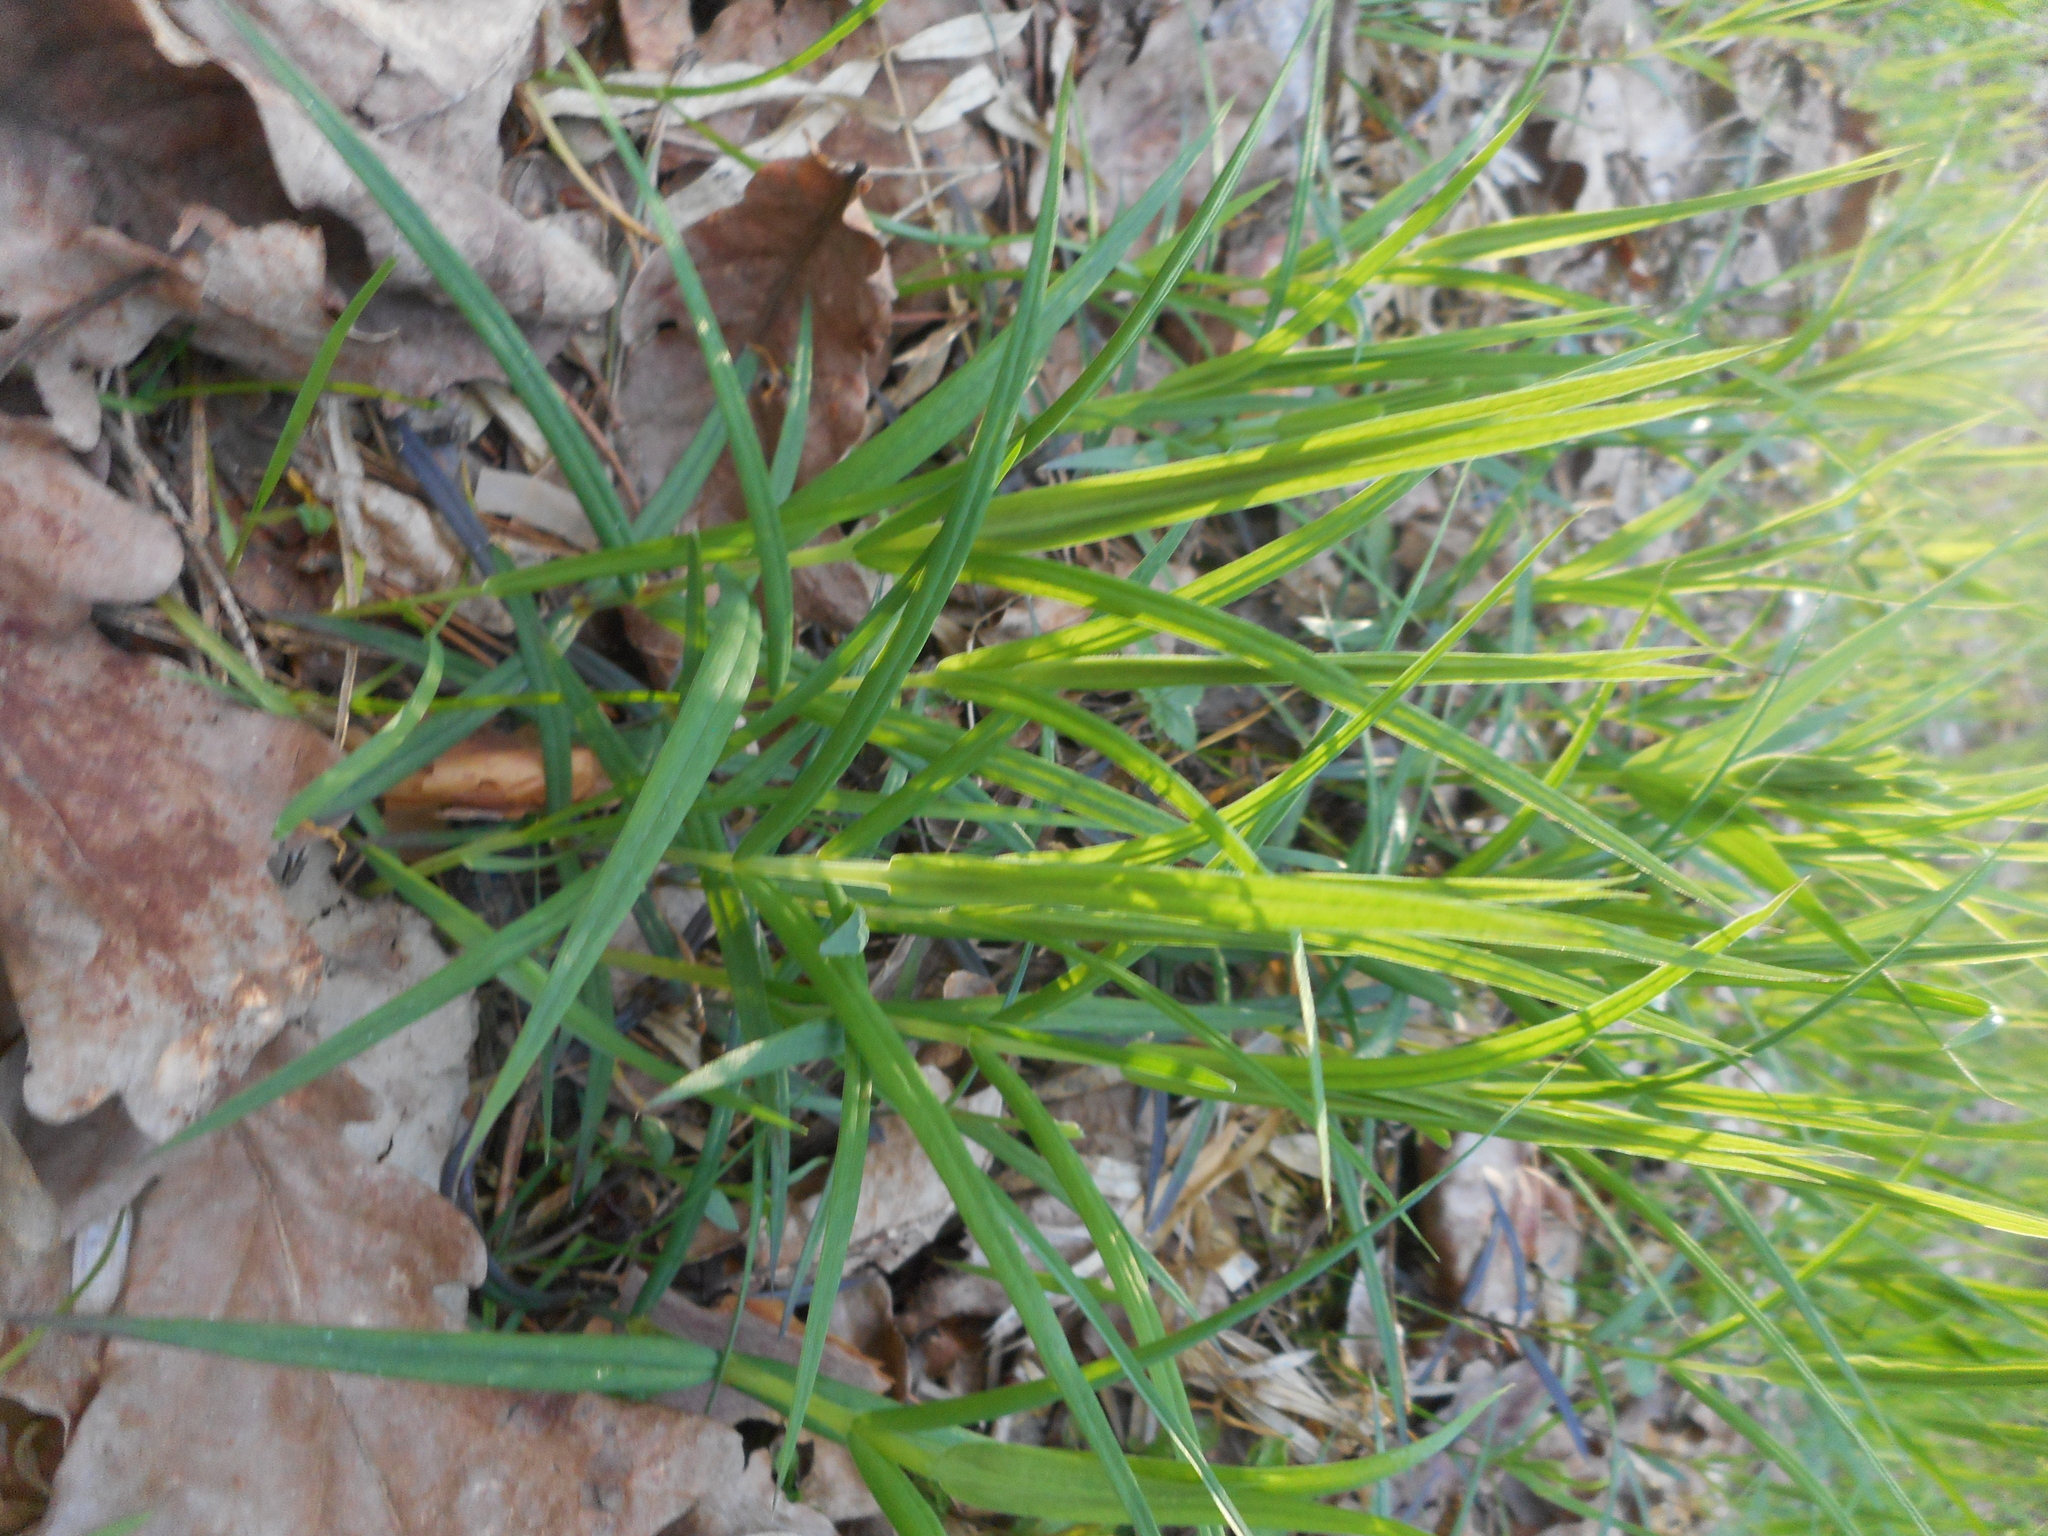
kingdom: Plantae
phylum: Tracheophyta
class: Magnoliopsida
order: Caryophyllales
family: Caryophyllaceae
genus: Rabelera
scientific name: Rabelera holostea
